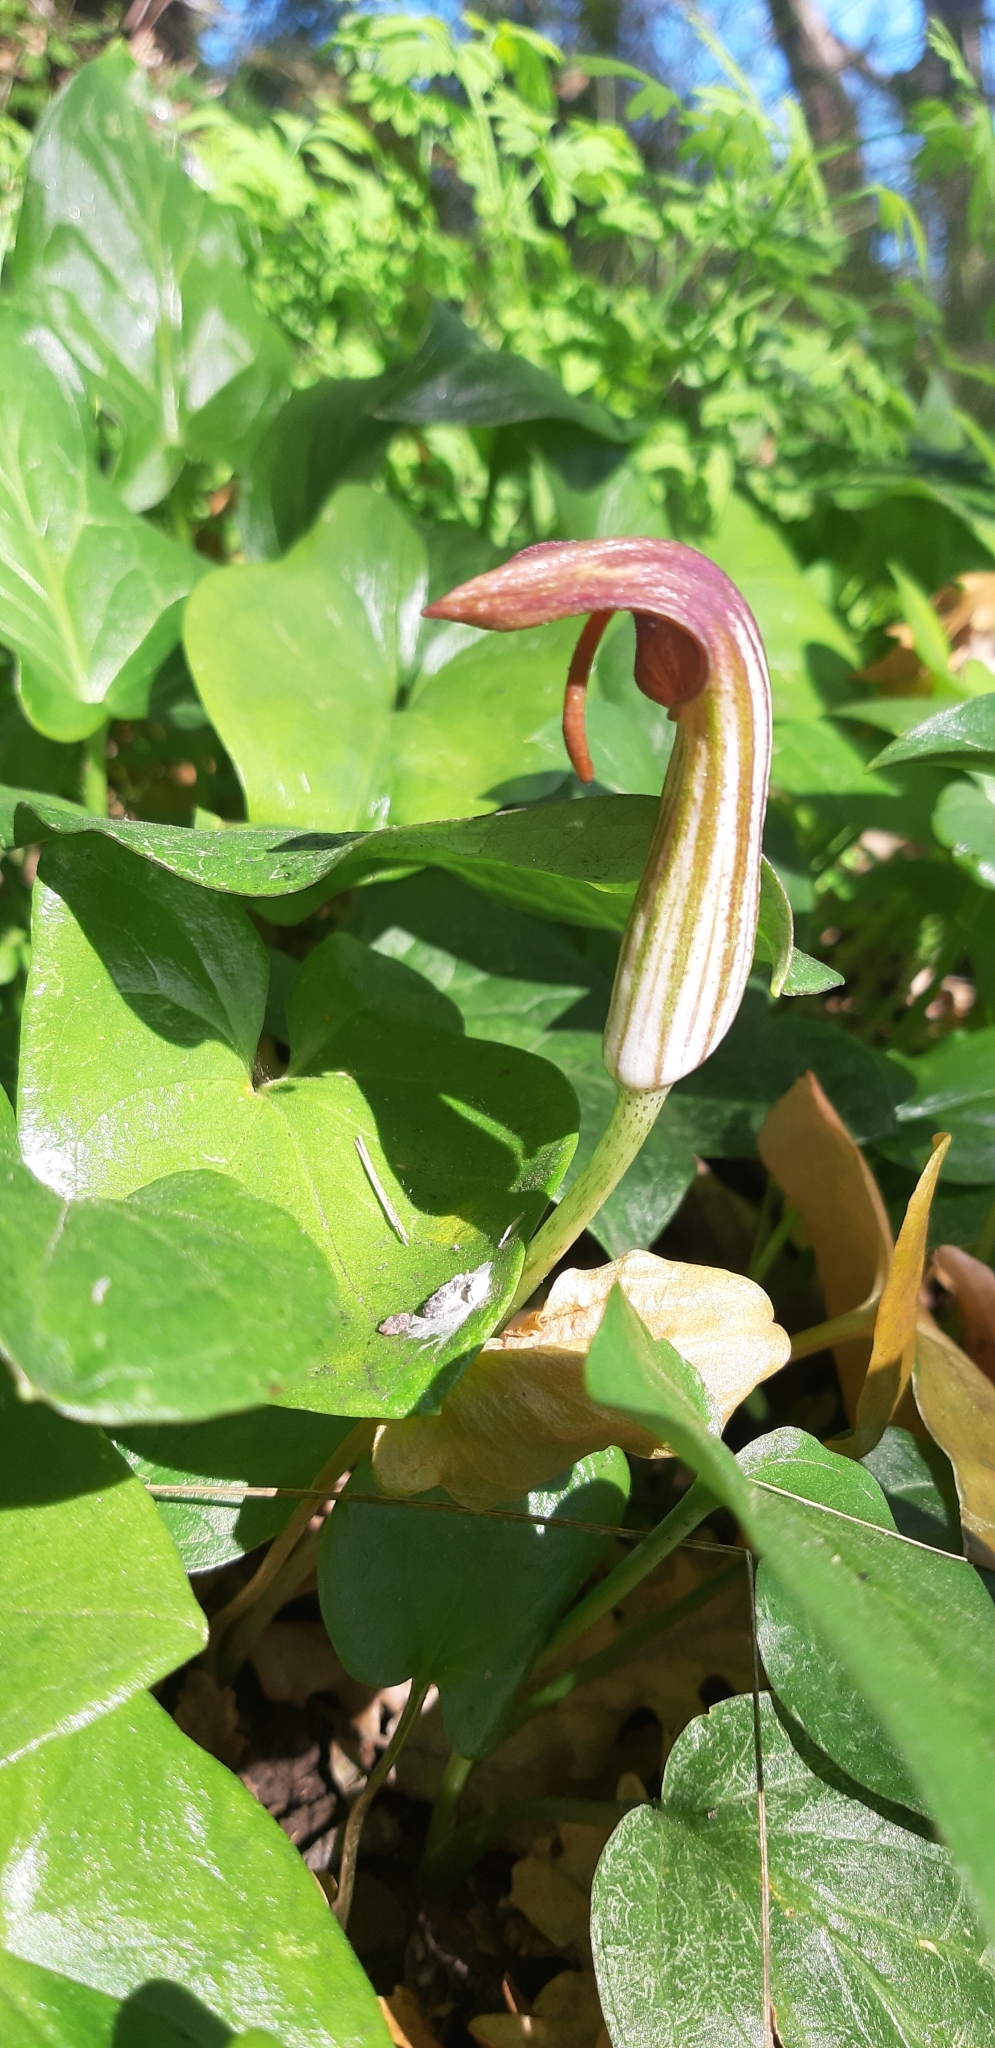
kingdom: Plantae
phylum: Tracheophyta
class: Liliopsida
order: Alismatales
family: Araceae
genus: Arisarum
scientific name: Arisarum vulgare
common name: Common arisarum
